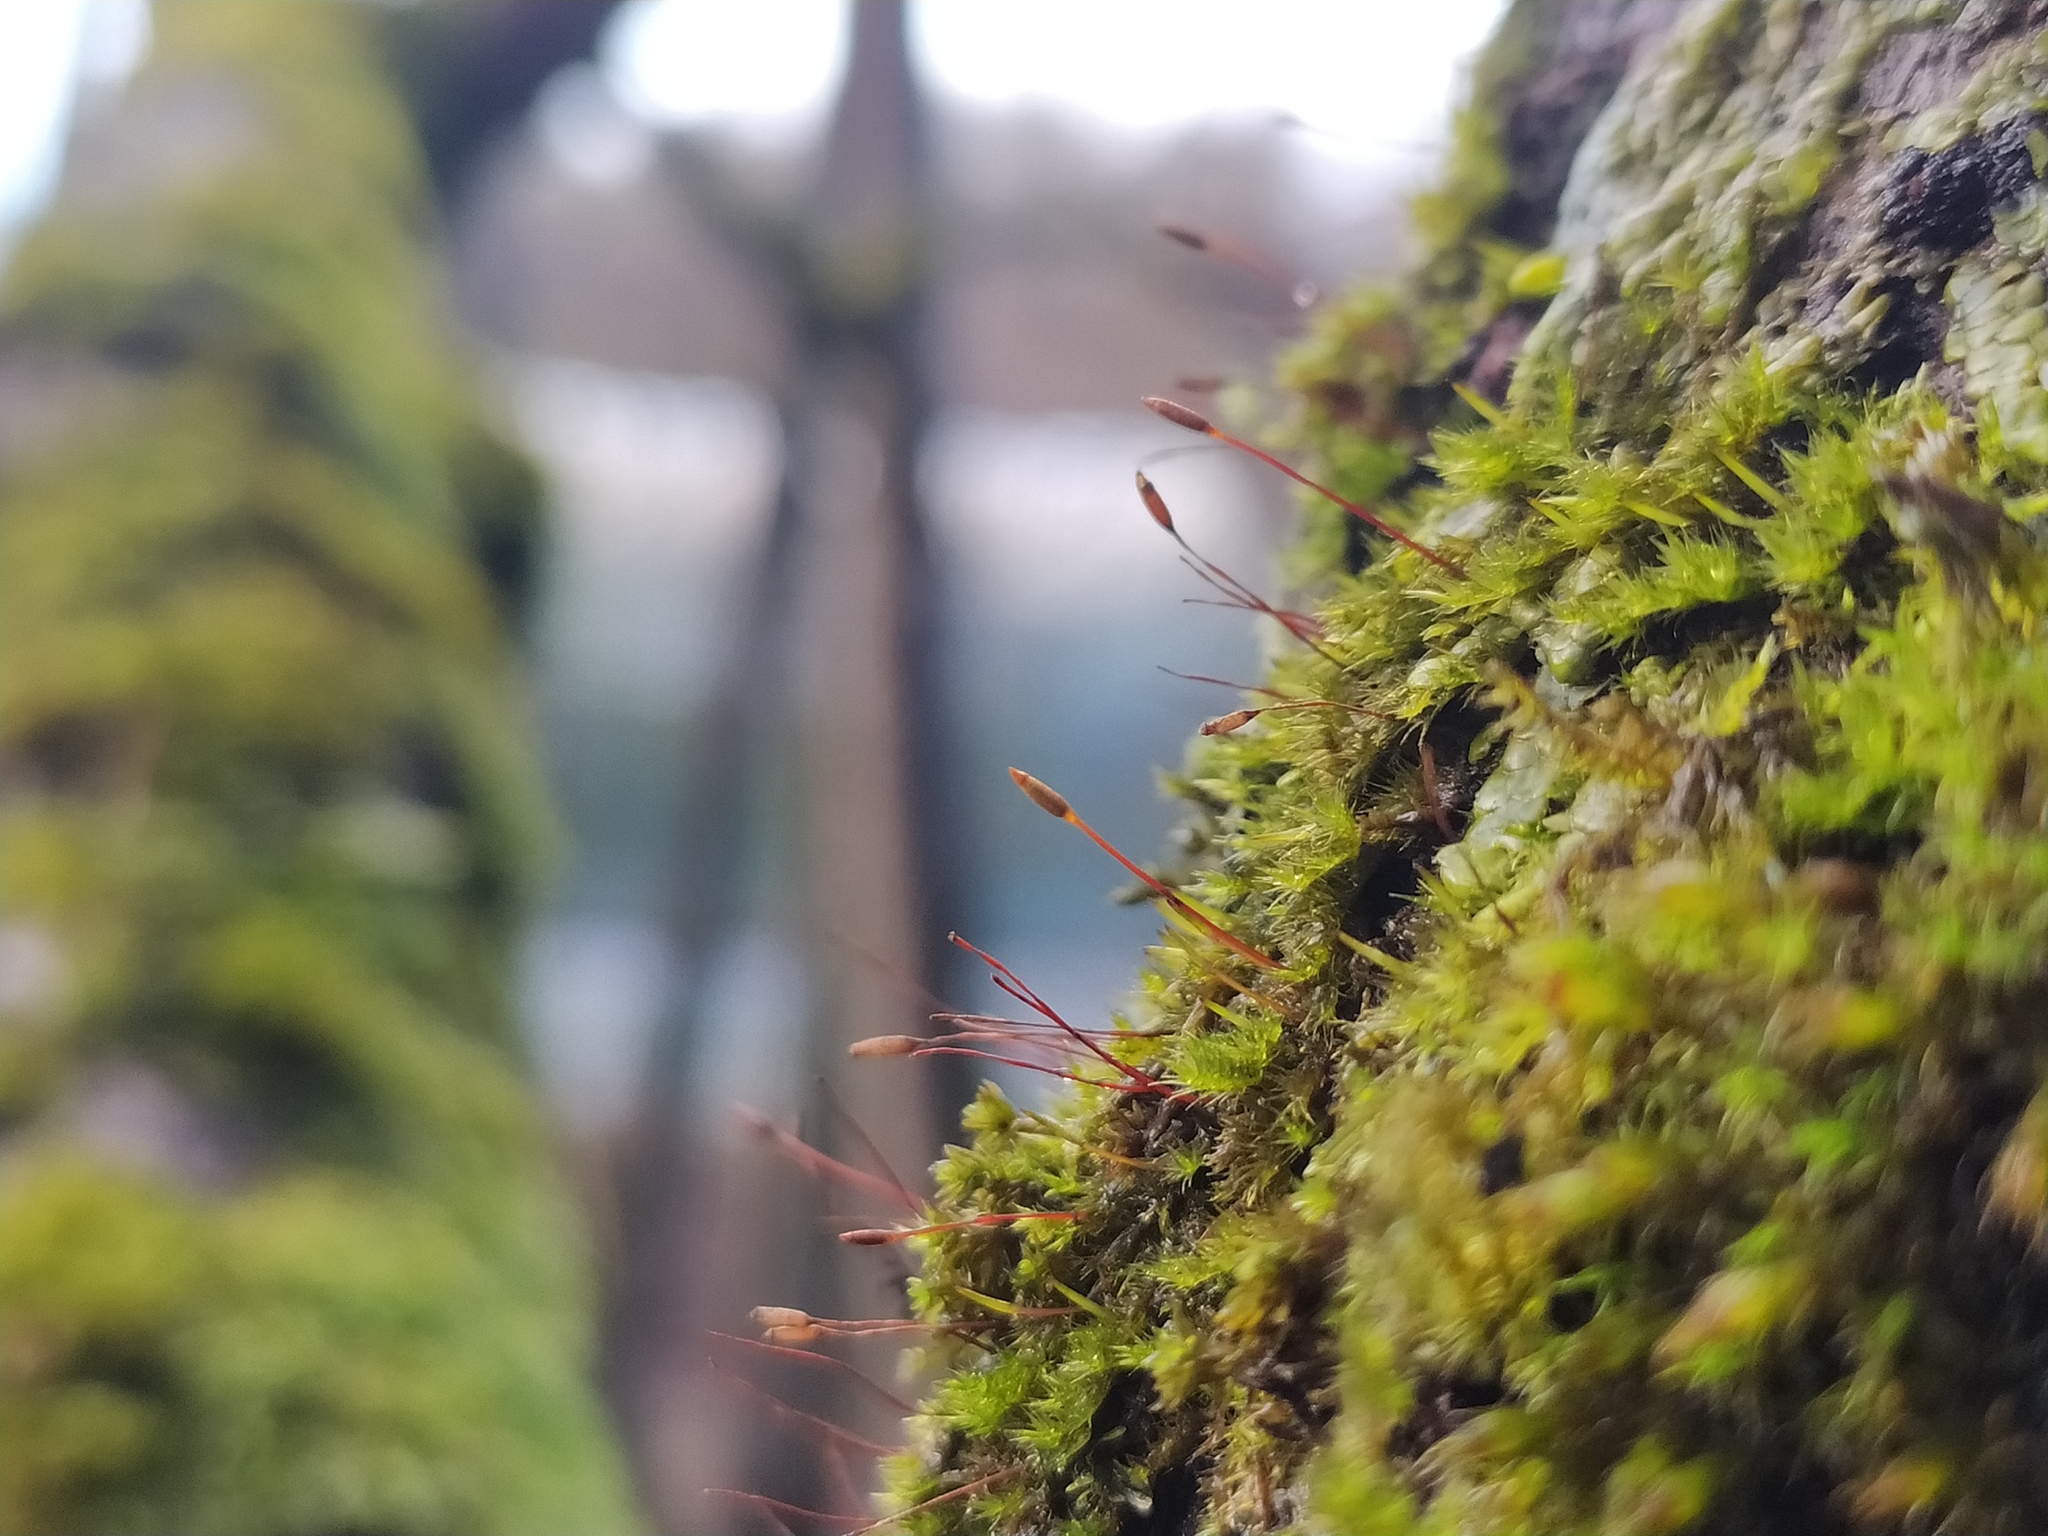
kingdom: Plantae
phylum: Bryophyta
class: Bryopsida
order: Hypnales
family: Pylaisiaceae
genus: Pylaisia
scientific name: Pylaisia polyantha
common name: Many-flowered leskea
